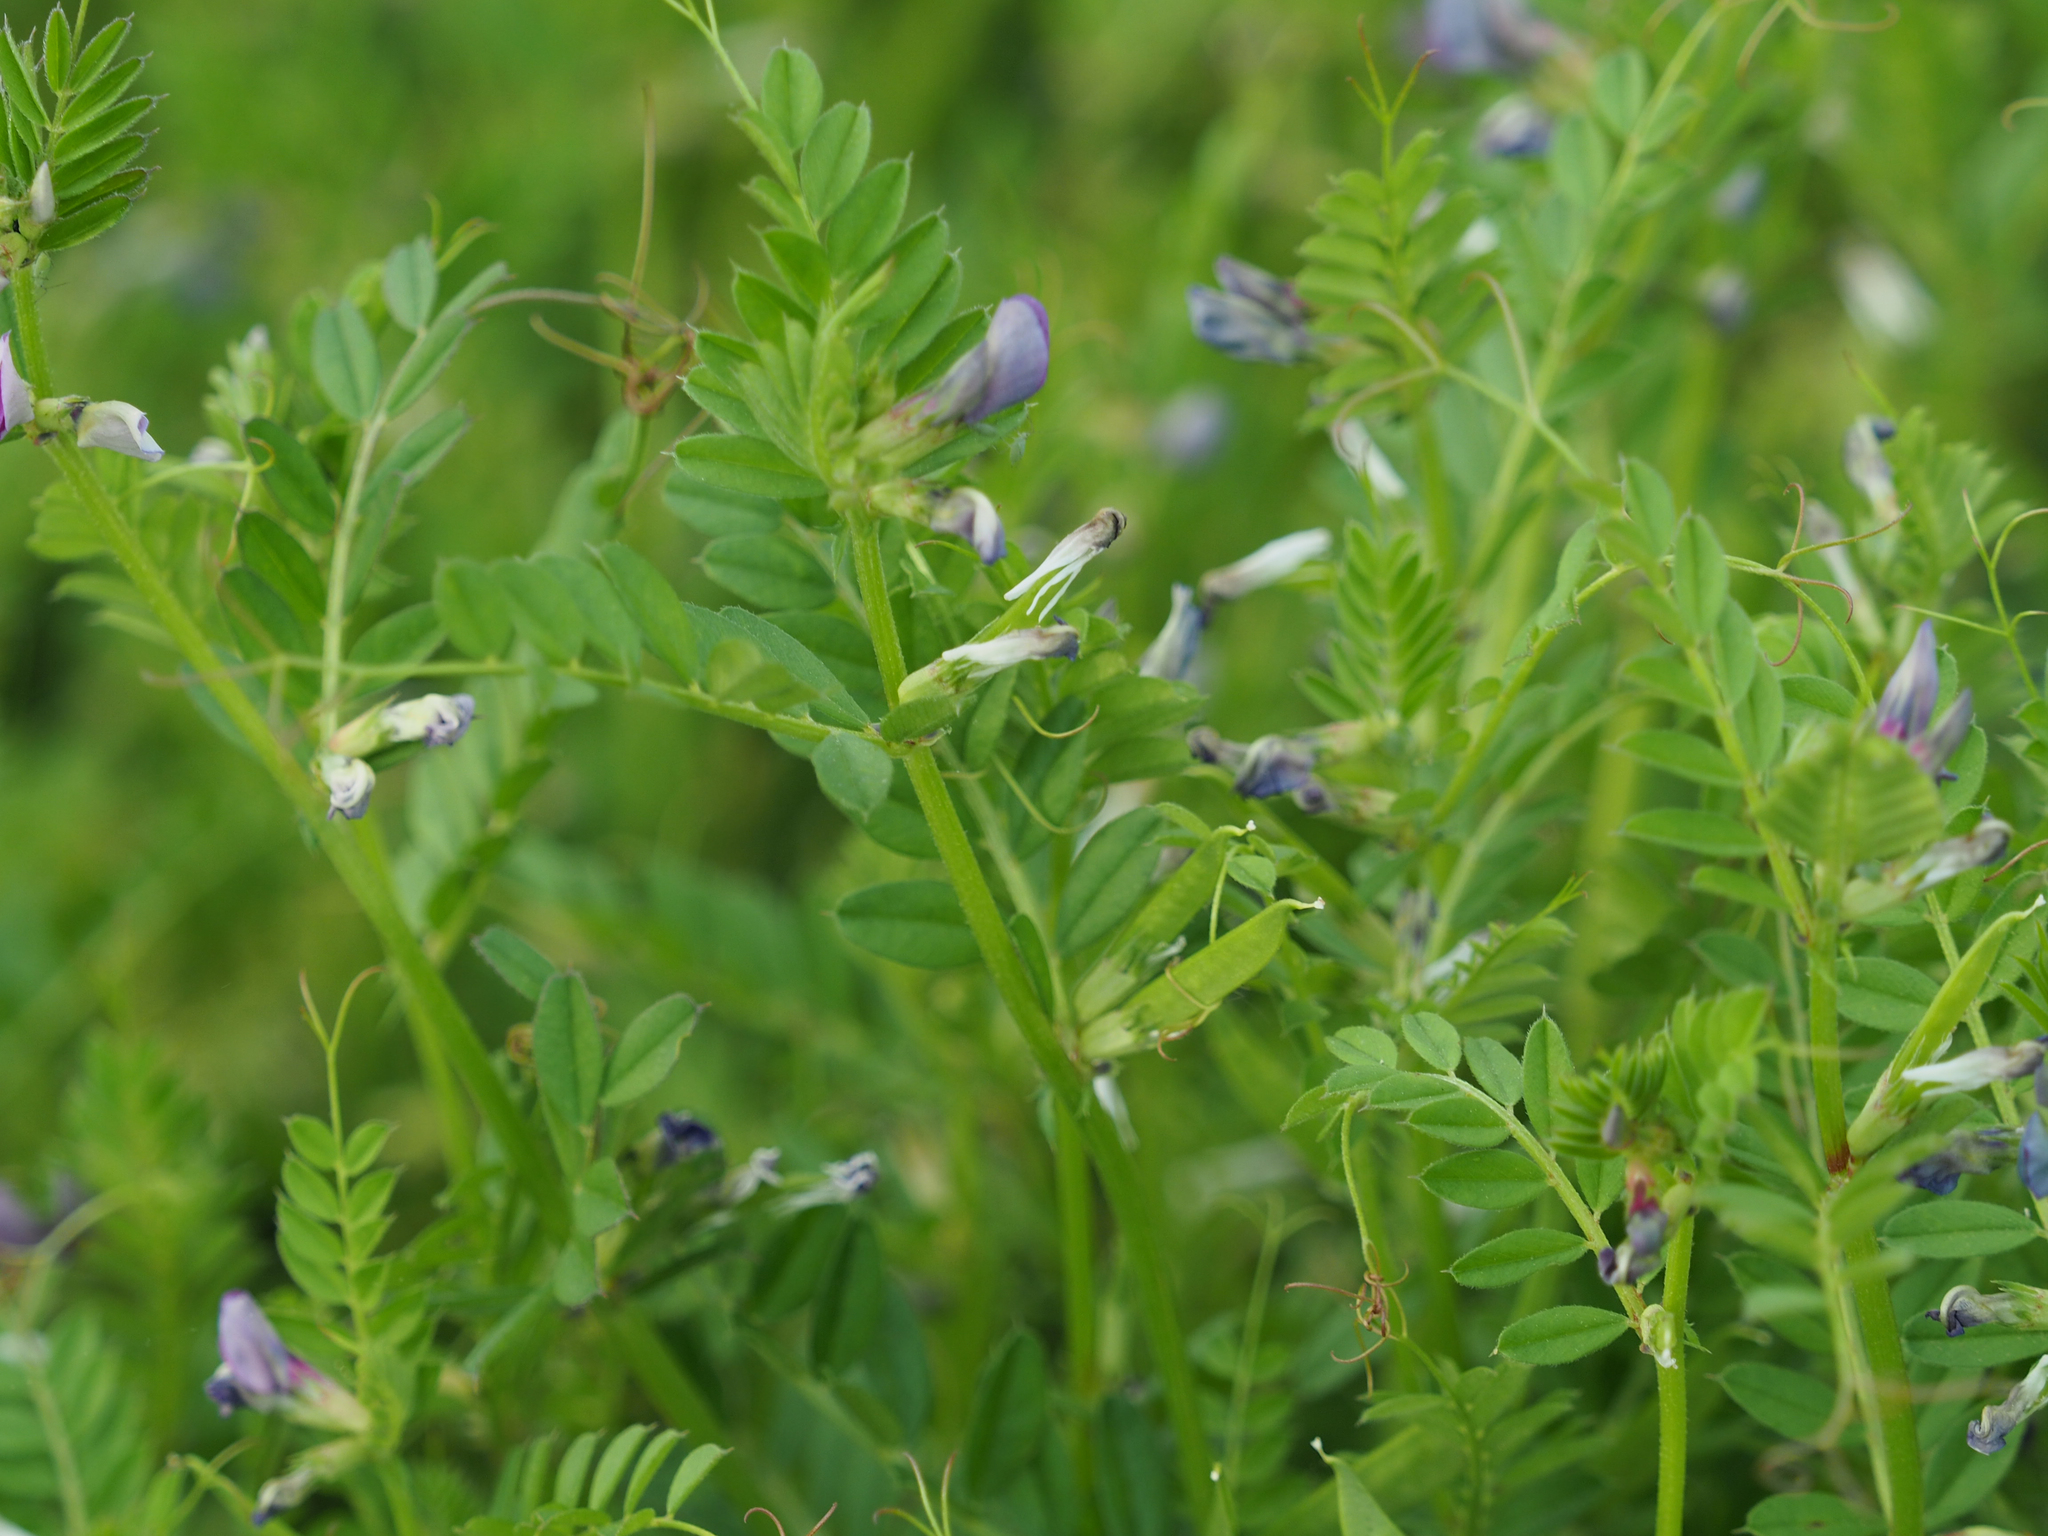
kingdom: Plantae
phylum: Tracheophyta
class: Magnoliopsida
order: Fabales
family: Fabaceae
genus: Vicia
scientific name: Vicia sativa
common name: Garden vetch
